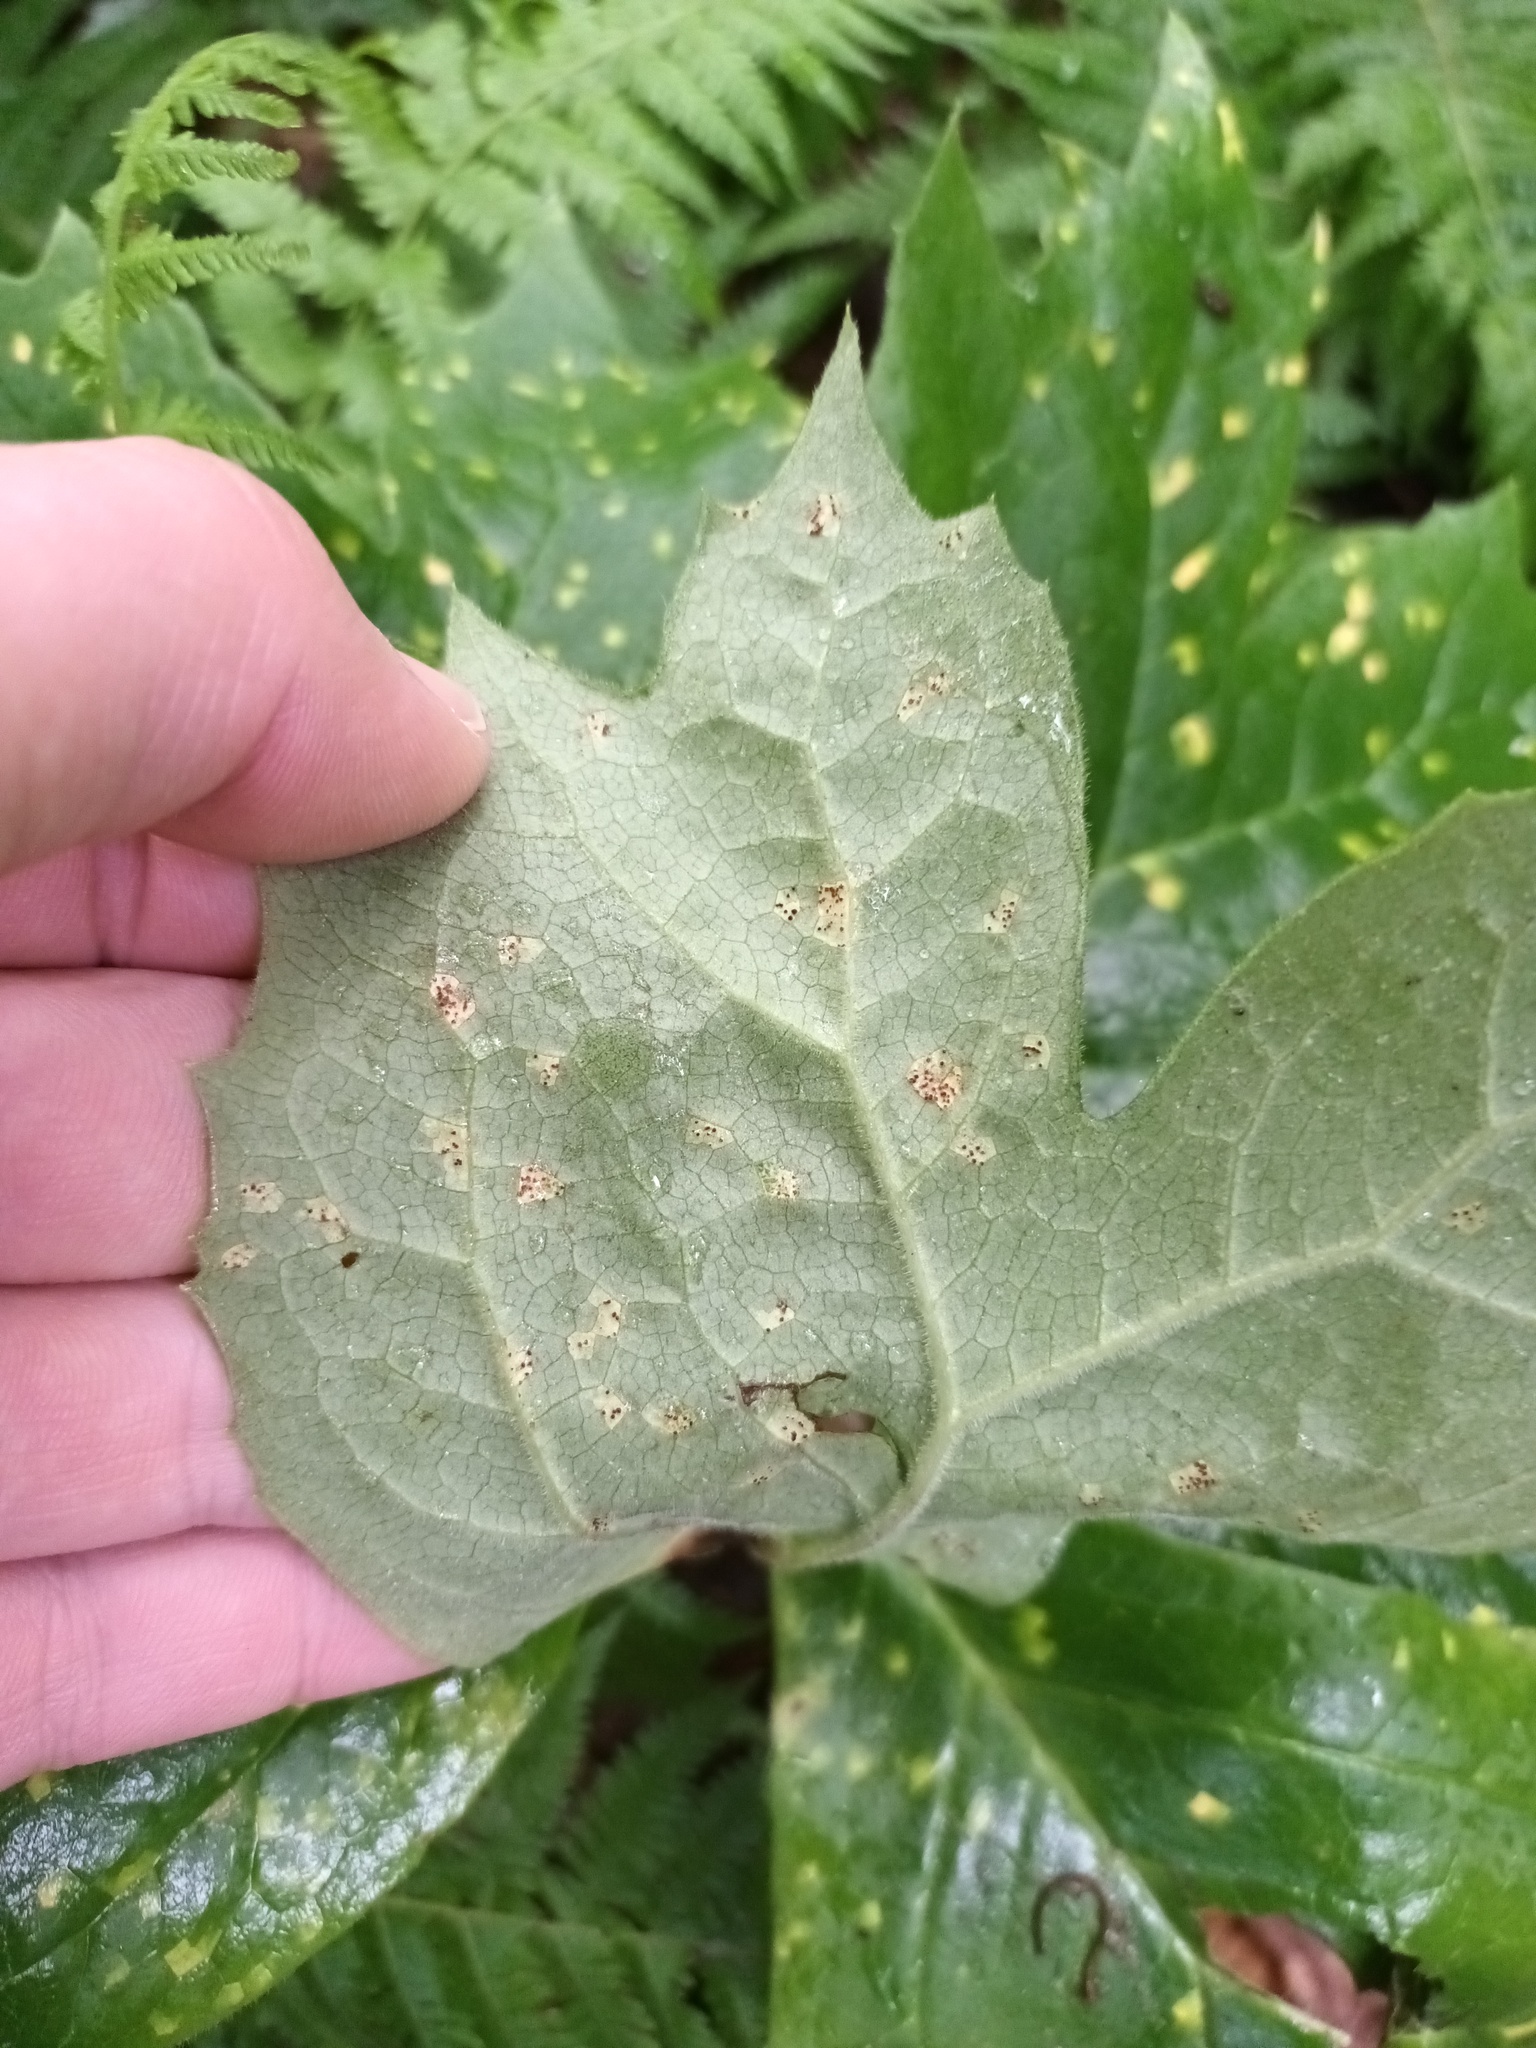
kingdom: Fungi
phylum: Basidiomycota
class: Pucciniomycetes
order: Pucciniales
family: Pucciniaceae
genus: Puccinia
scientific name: Puccinia podophylli
